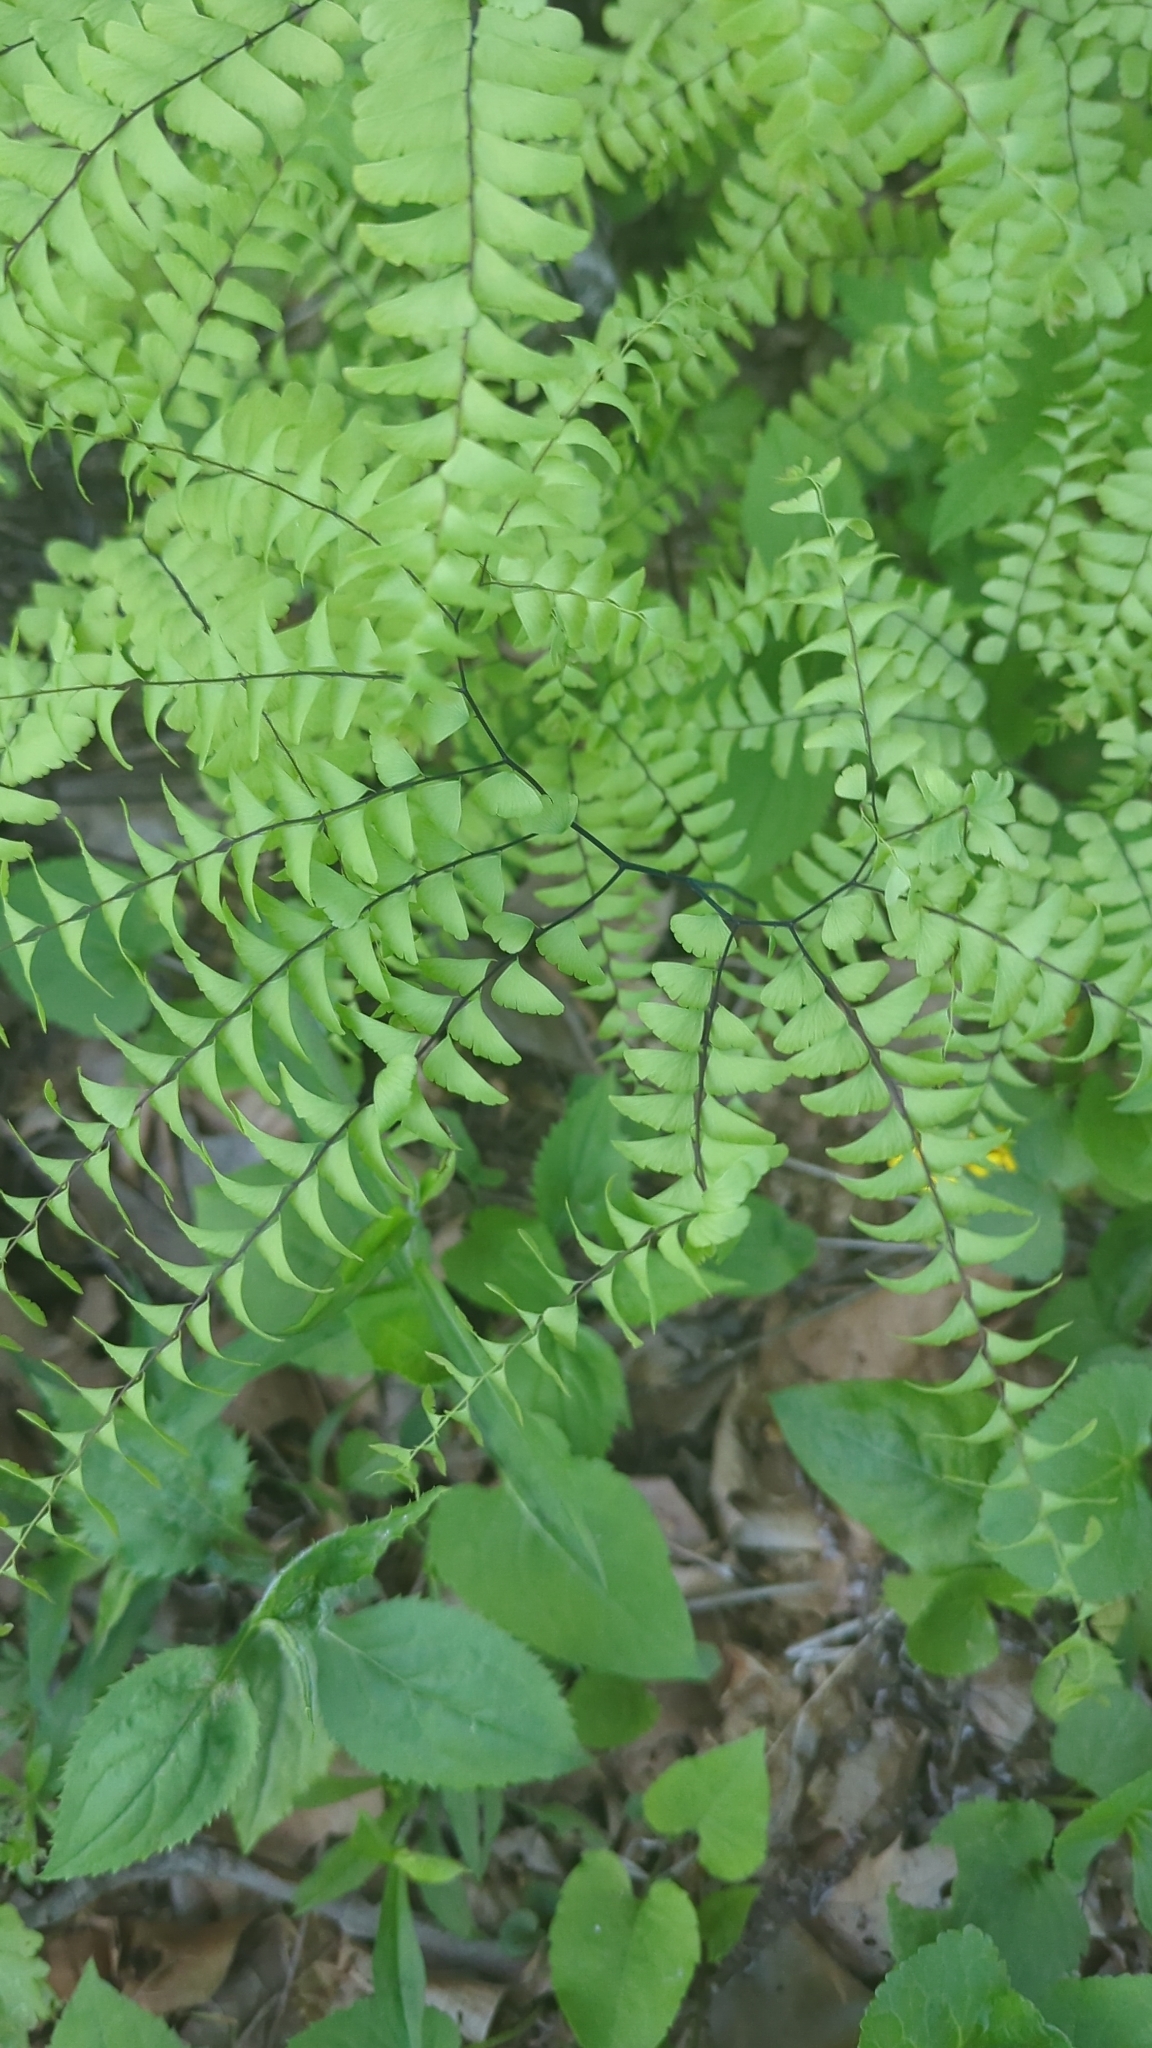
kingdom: Plantae
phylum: Tracheophyta
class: Polypodiopsida
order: Polypodiales
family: Pteridaceae
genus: Adiantum
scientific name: Adiantum pedatum
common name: Five-finger fern
